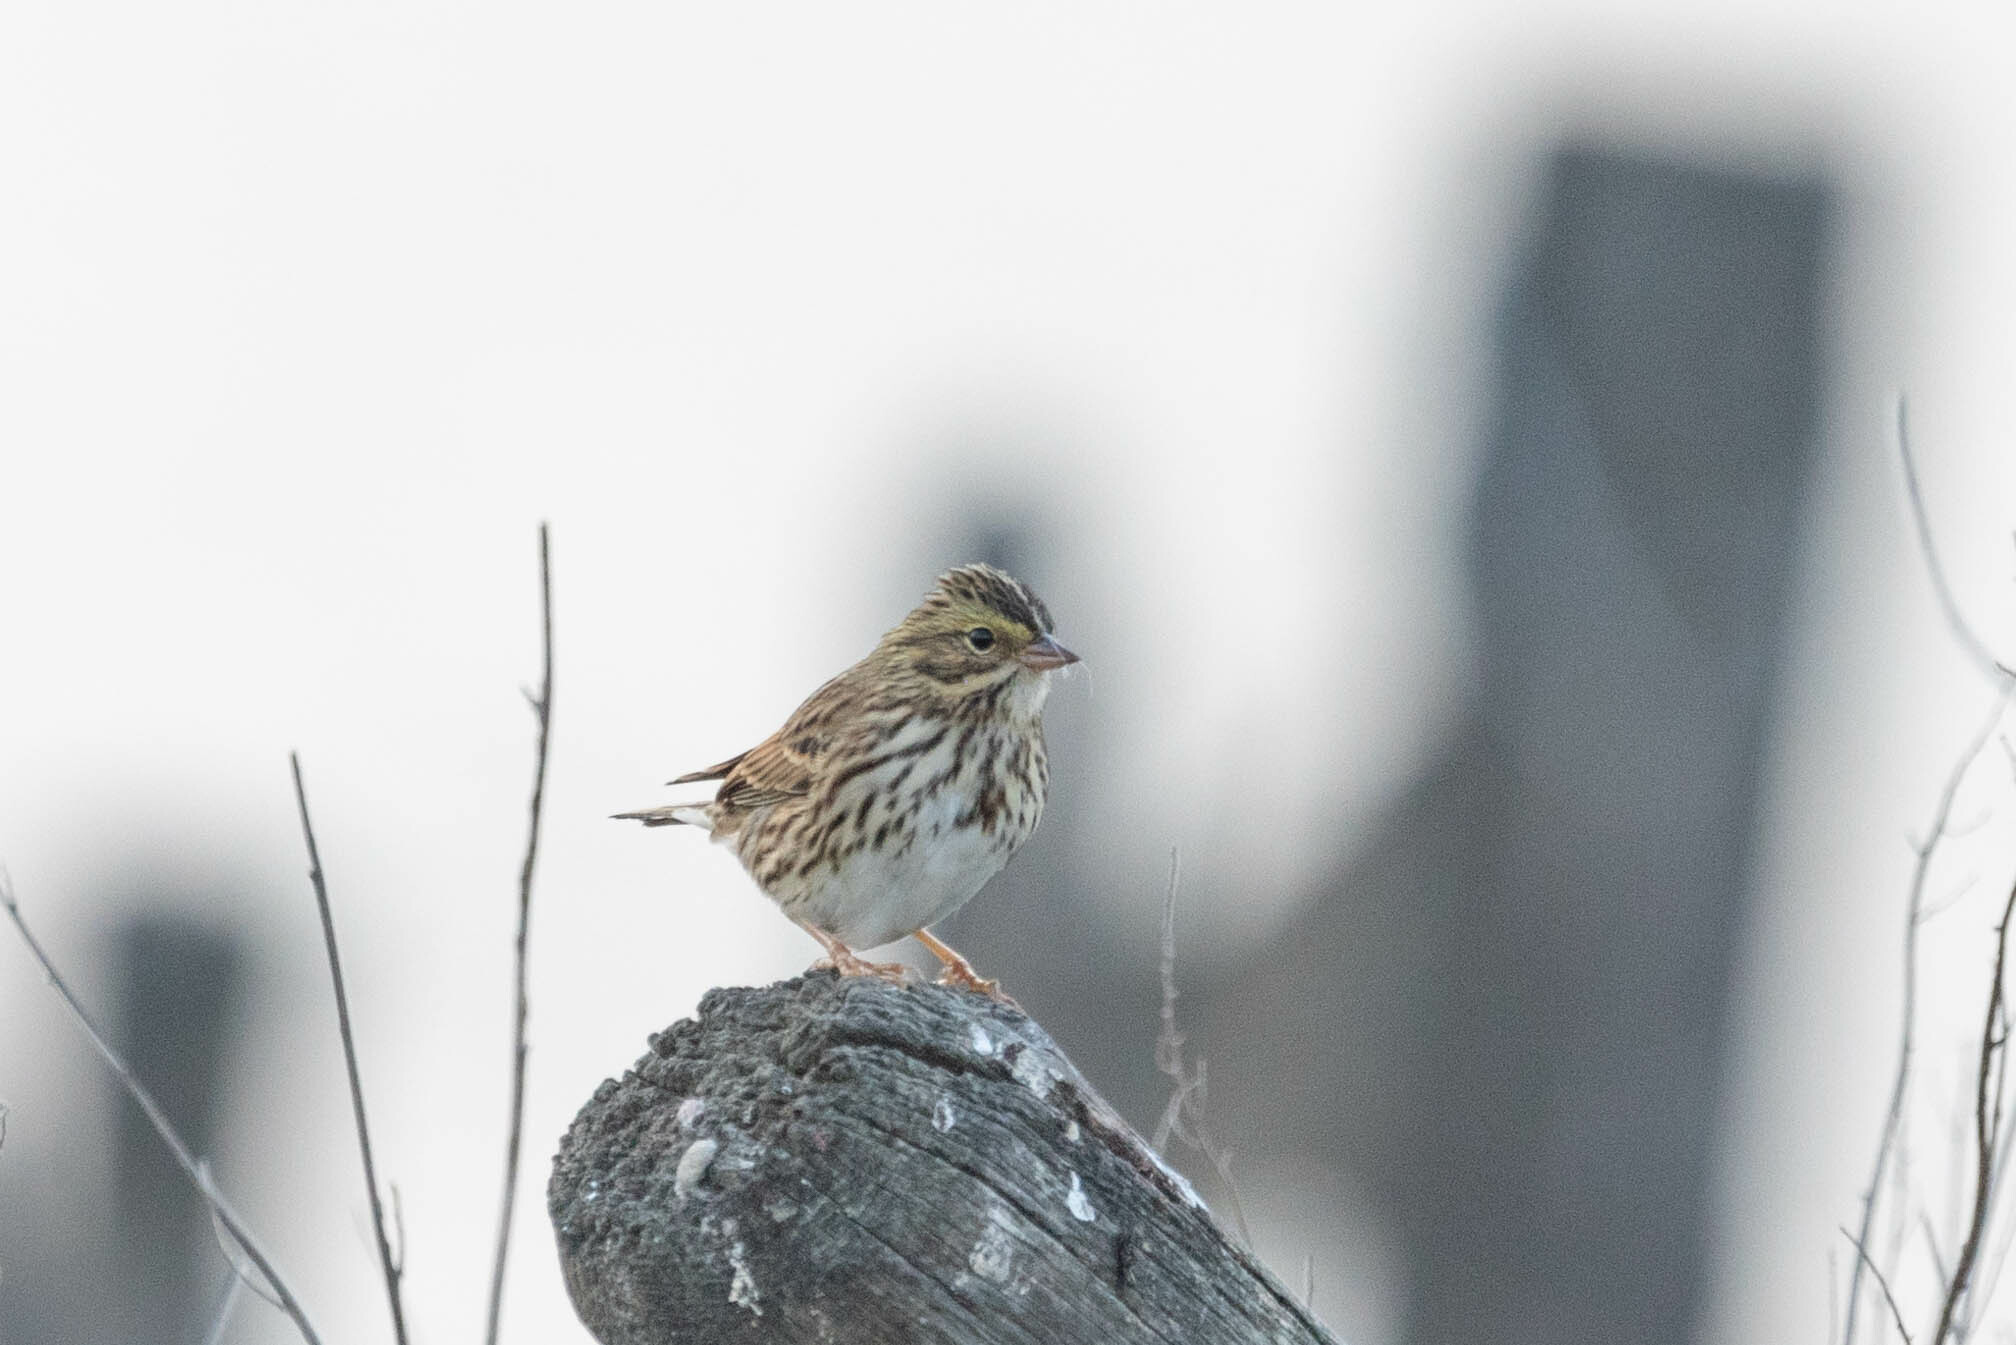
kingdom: Animalia
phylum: Chordata
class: Aves
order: Passeriformes
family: Passerellidae
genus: Passerculus
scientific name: Passerculus sandwichensis
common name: Savannah sparrow
